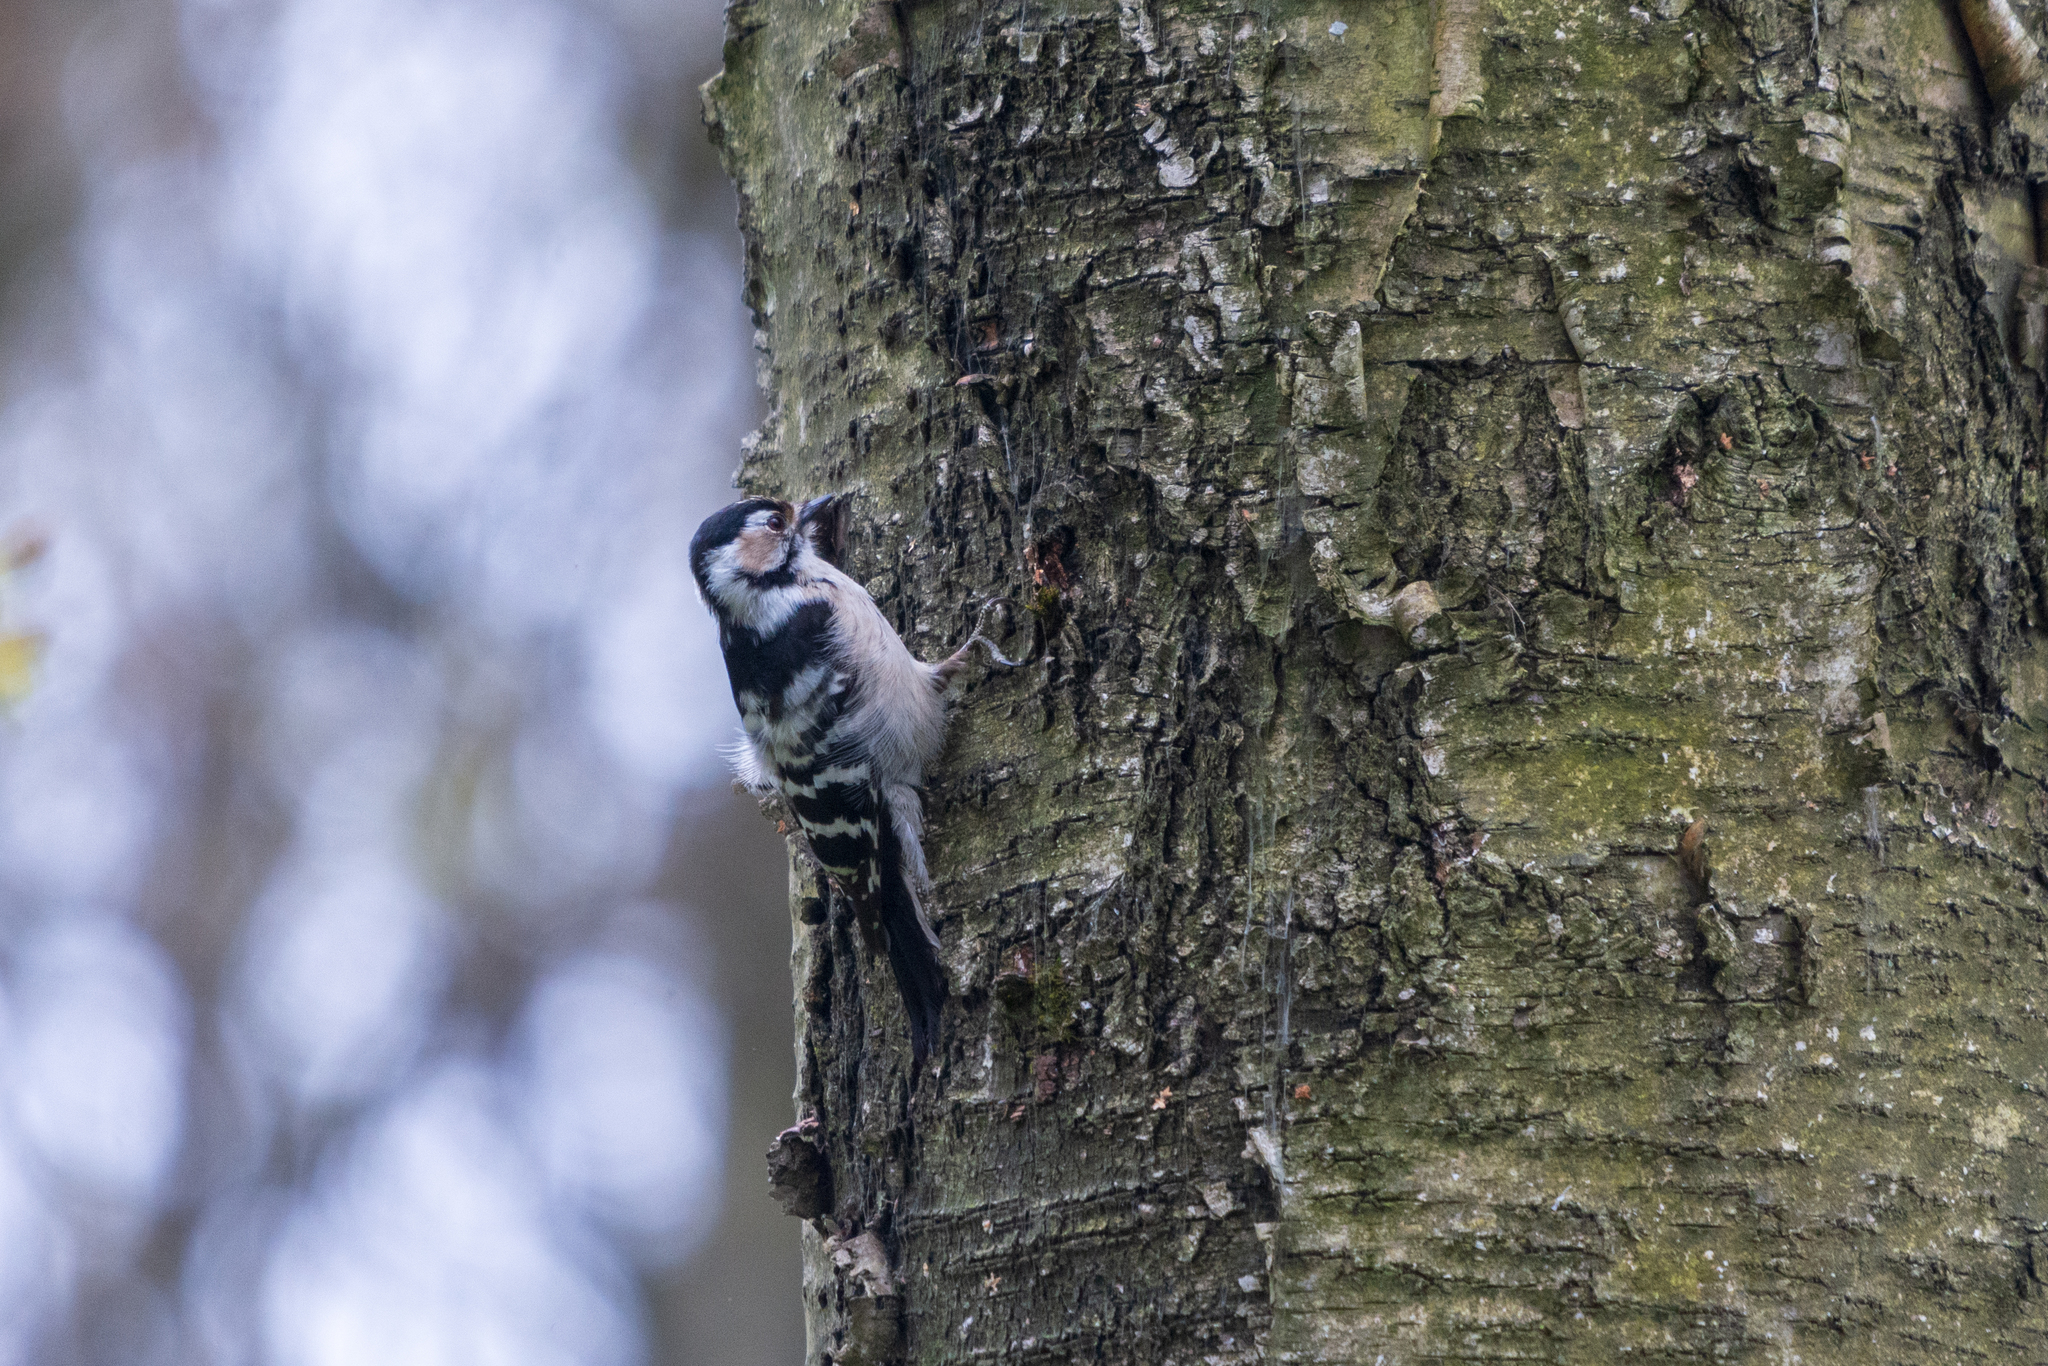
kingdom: Animalia
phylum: Chordata
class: Aves
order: Piciformes
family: Picidae
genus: Dryobates
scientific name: Dryobates minor
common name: Lesser spotted woodpecker
